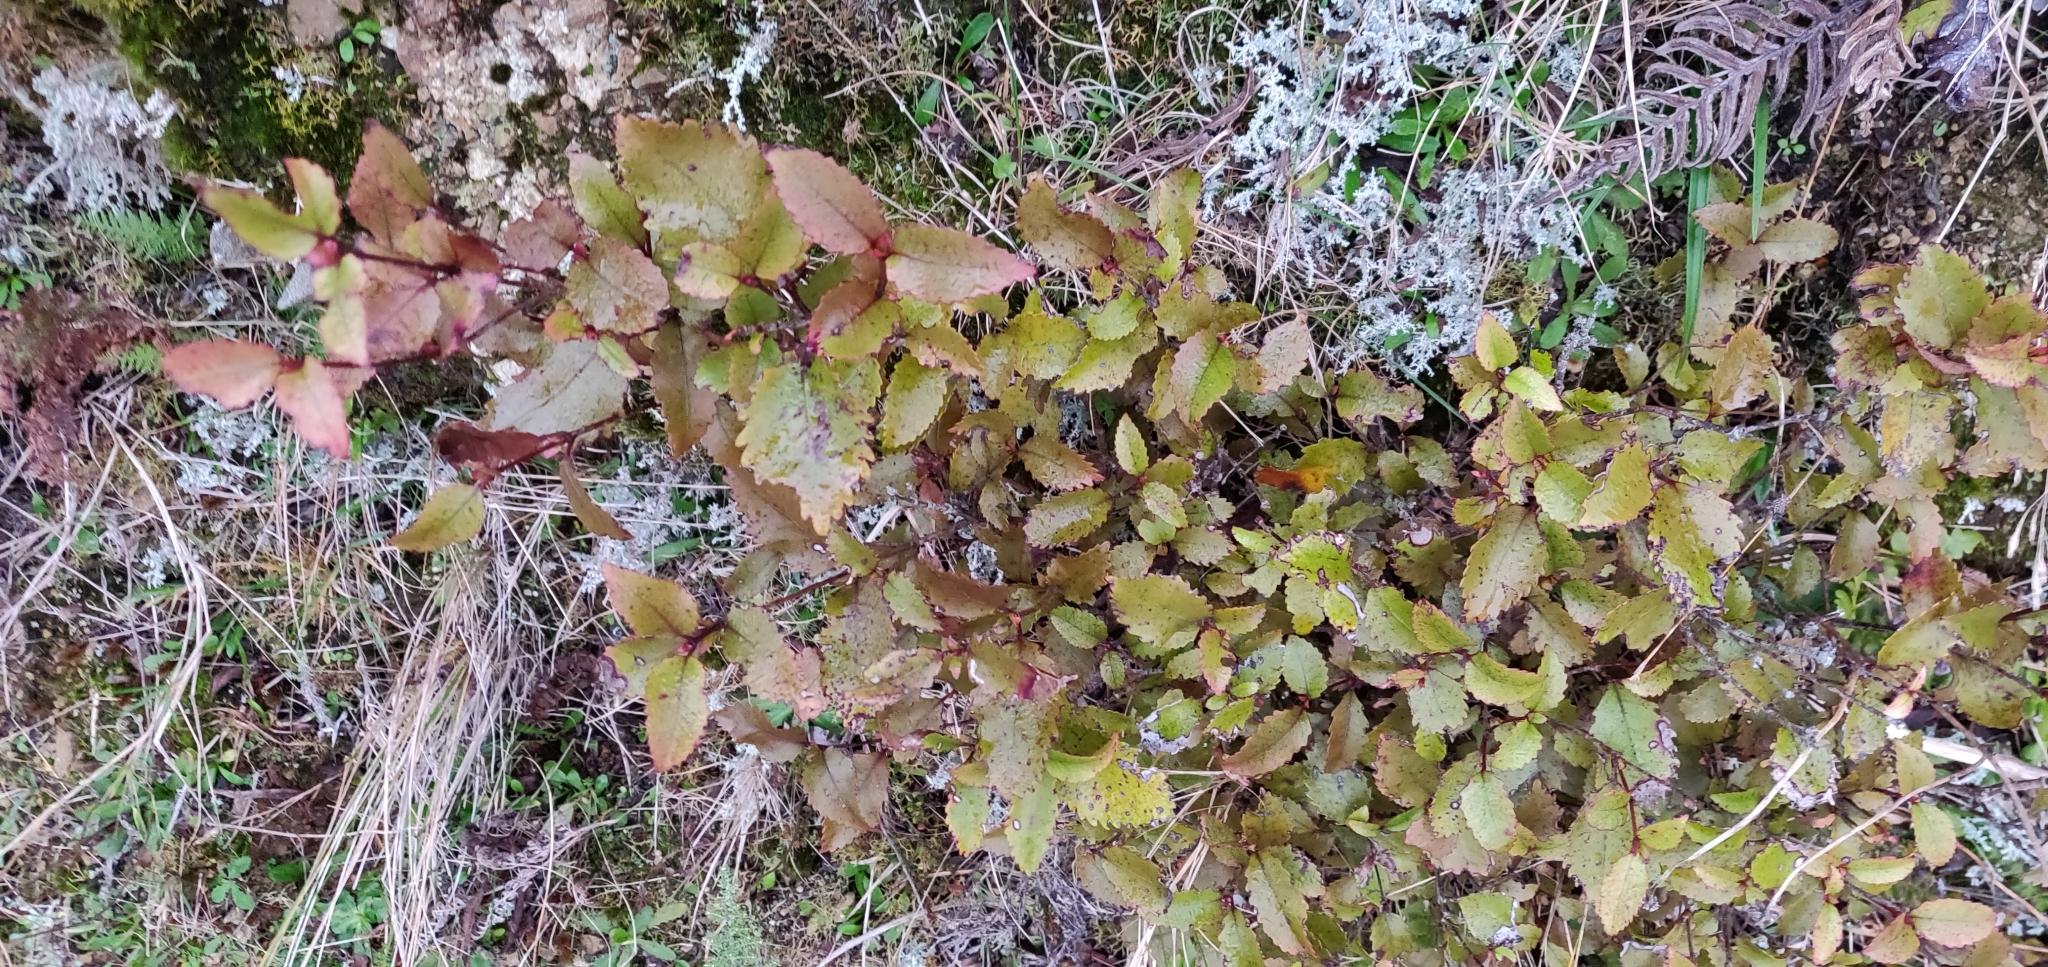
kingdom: Plantae
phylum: Tracheophyta
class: Magnoliopsida
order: Oxalidales
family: Cunoniaceae
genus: Pterophylla
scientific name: Pterophylla racemosa
